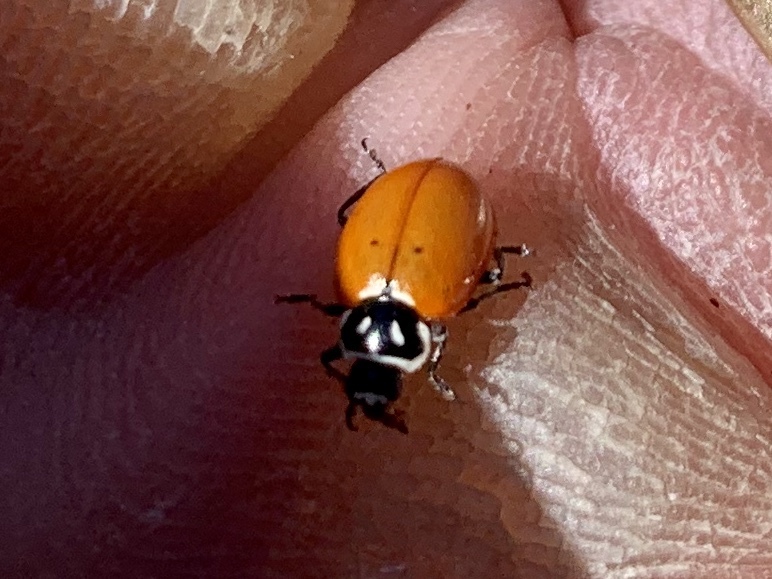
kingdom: Animalia
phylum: Arthropoda
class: Insecta
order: Coleoptera
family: Coccinellidae
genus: Hippodamia
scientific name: Hippodamia convergens
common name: Convergent lady beetle
